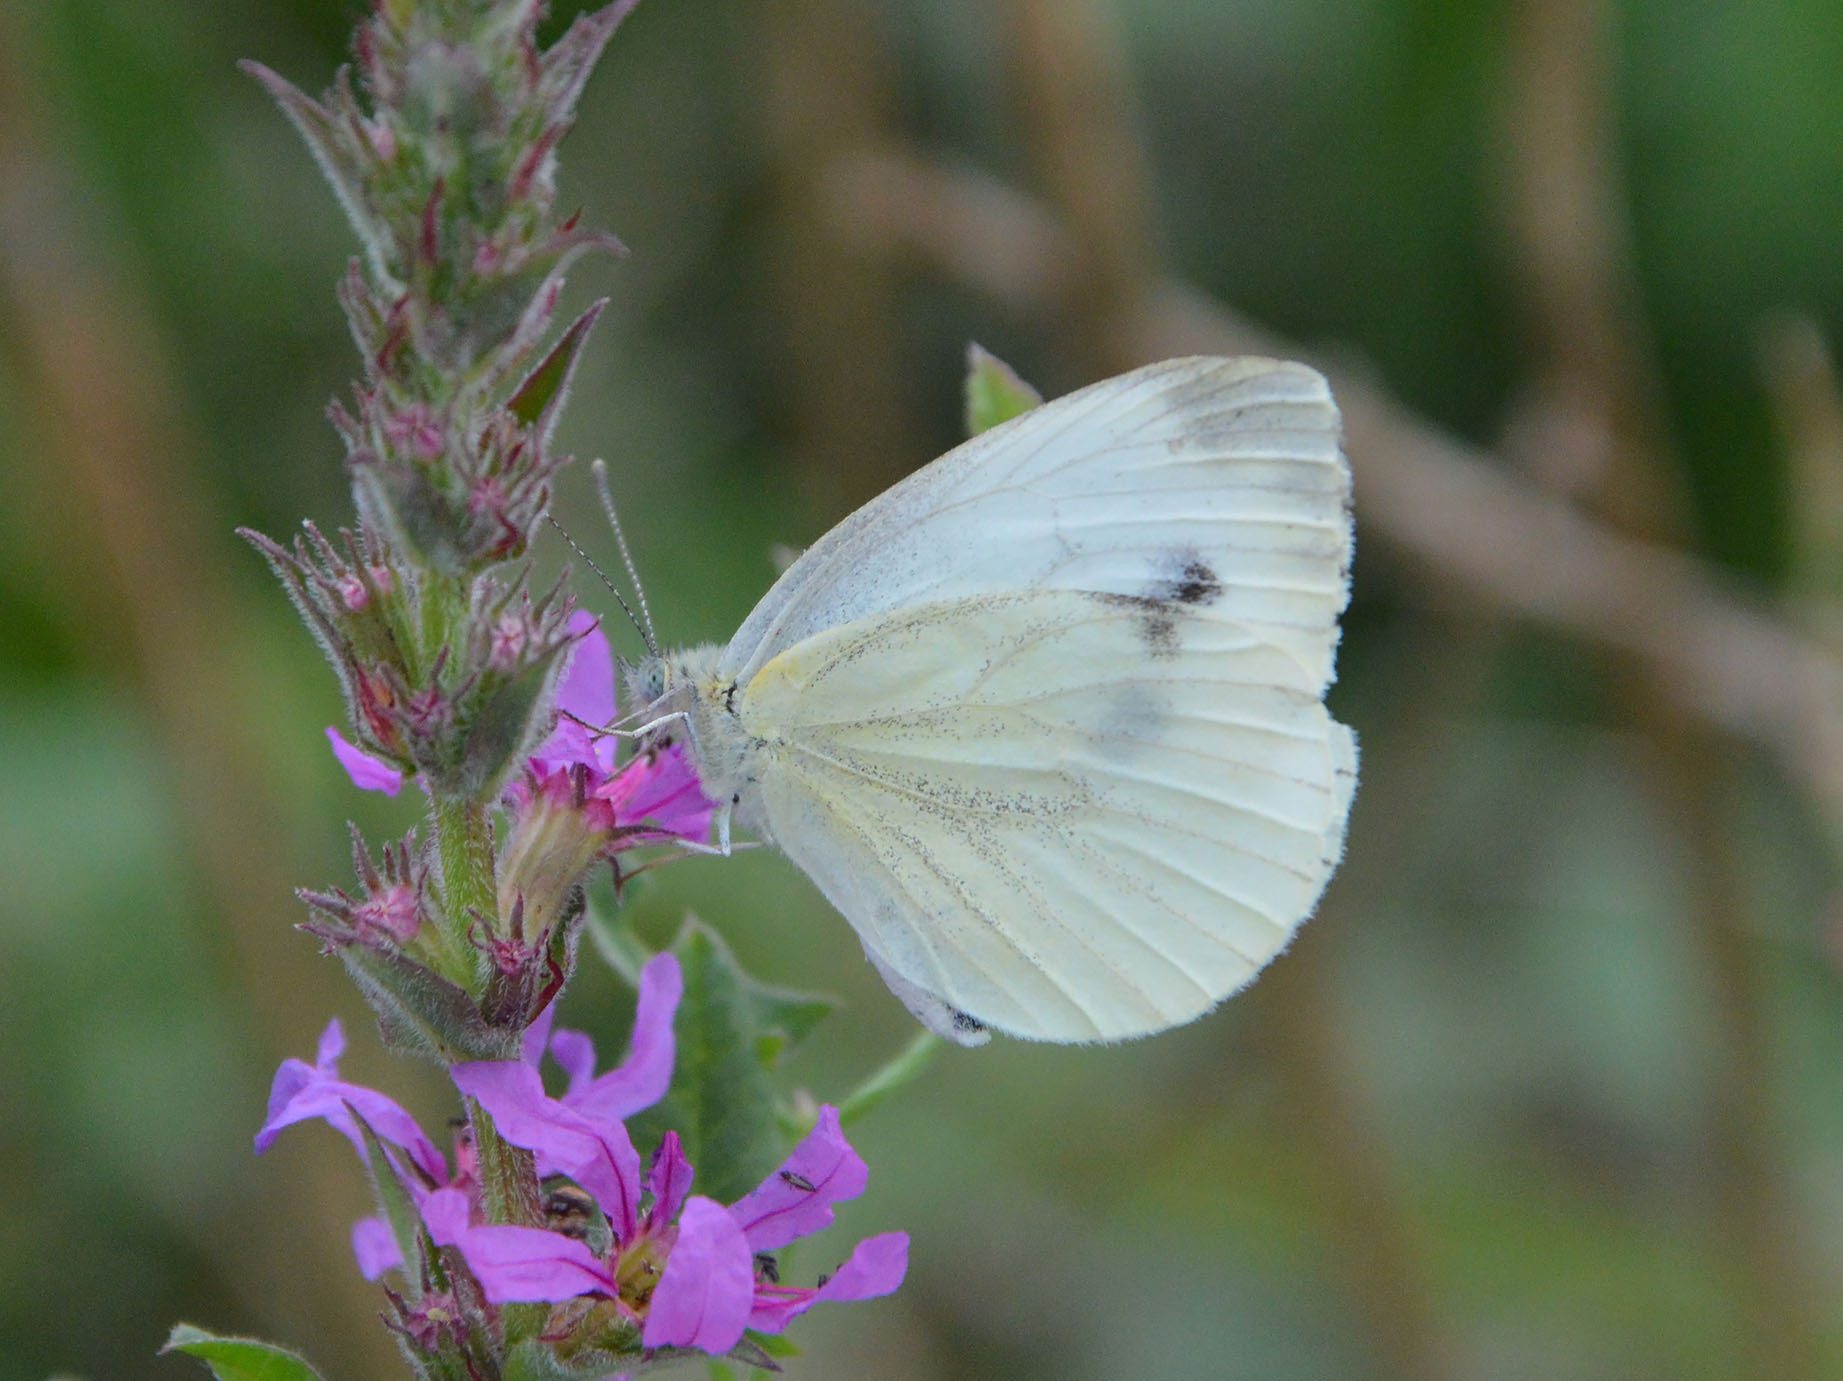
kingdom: Animalia
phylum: Arthropoda
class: Insecta
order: Lepidoptera
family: Pieridae
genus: Pieris
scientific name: Pieris napi
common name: Green-veined white
